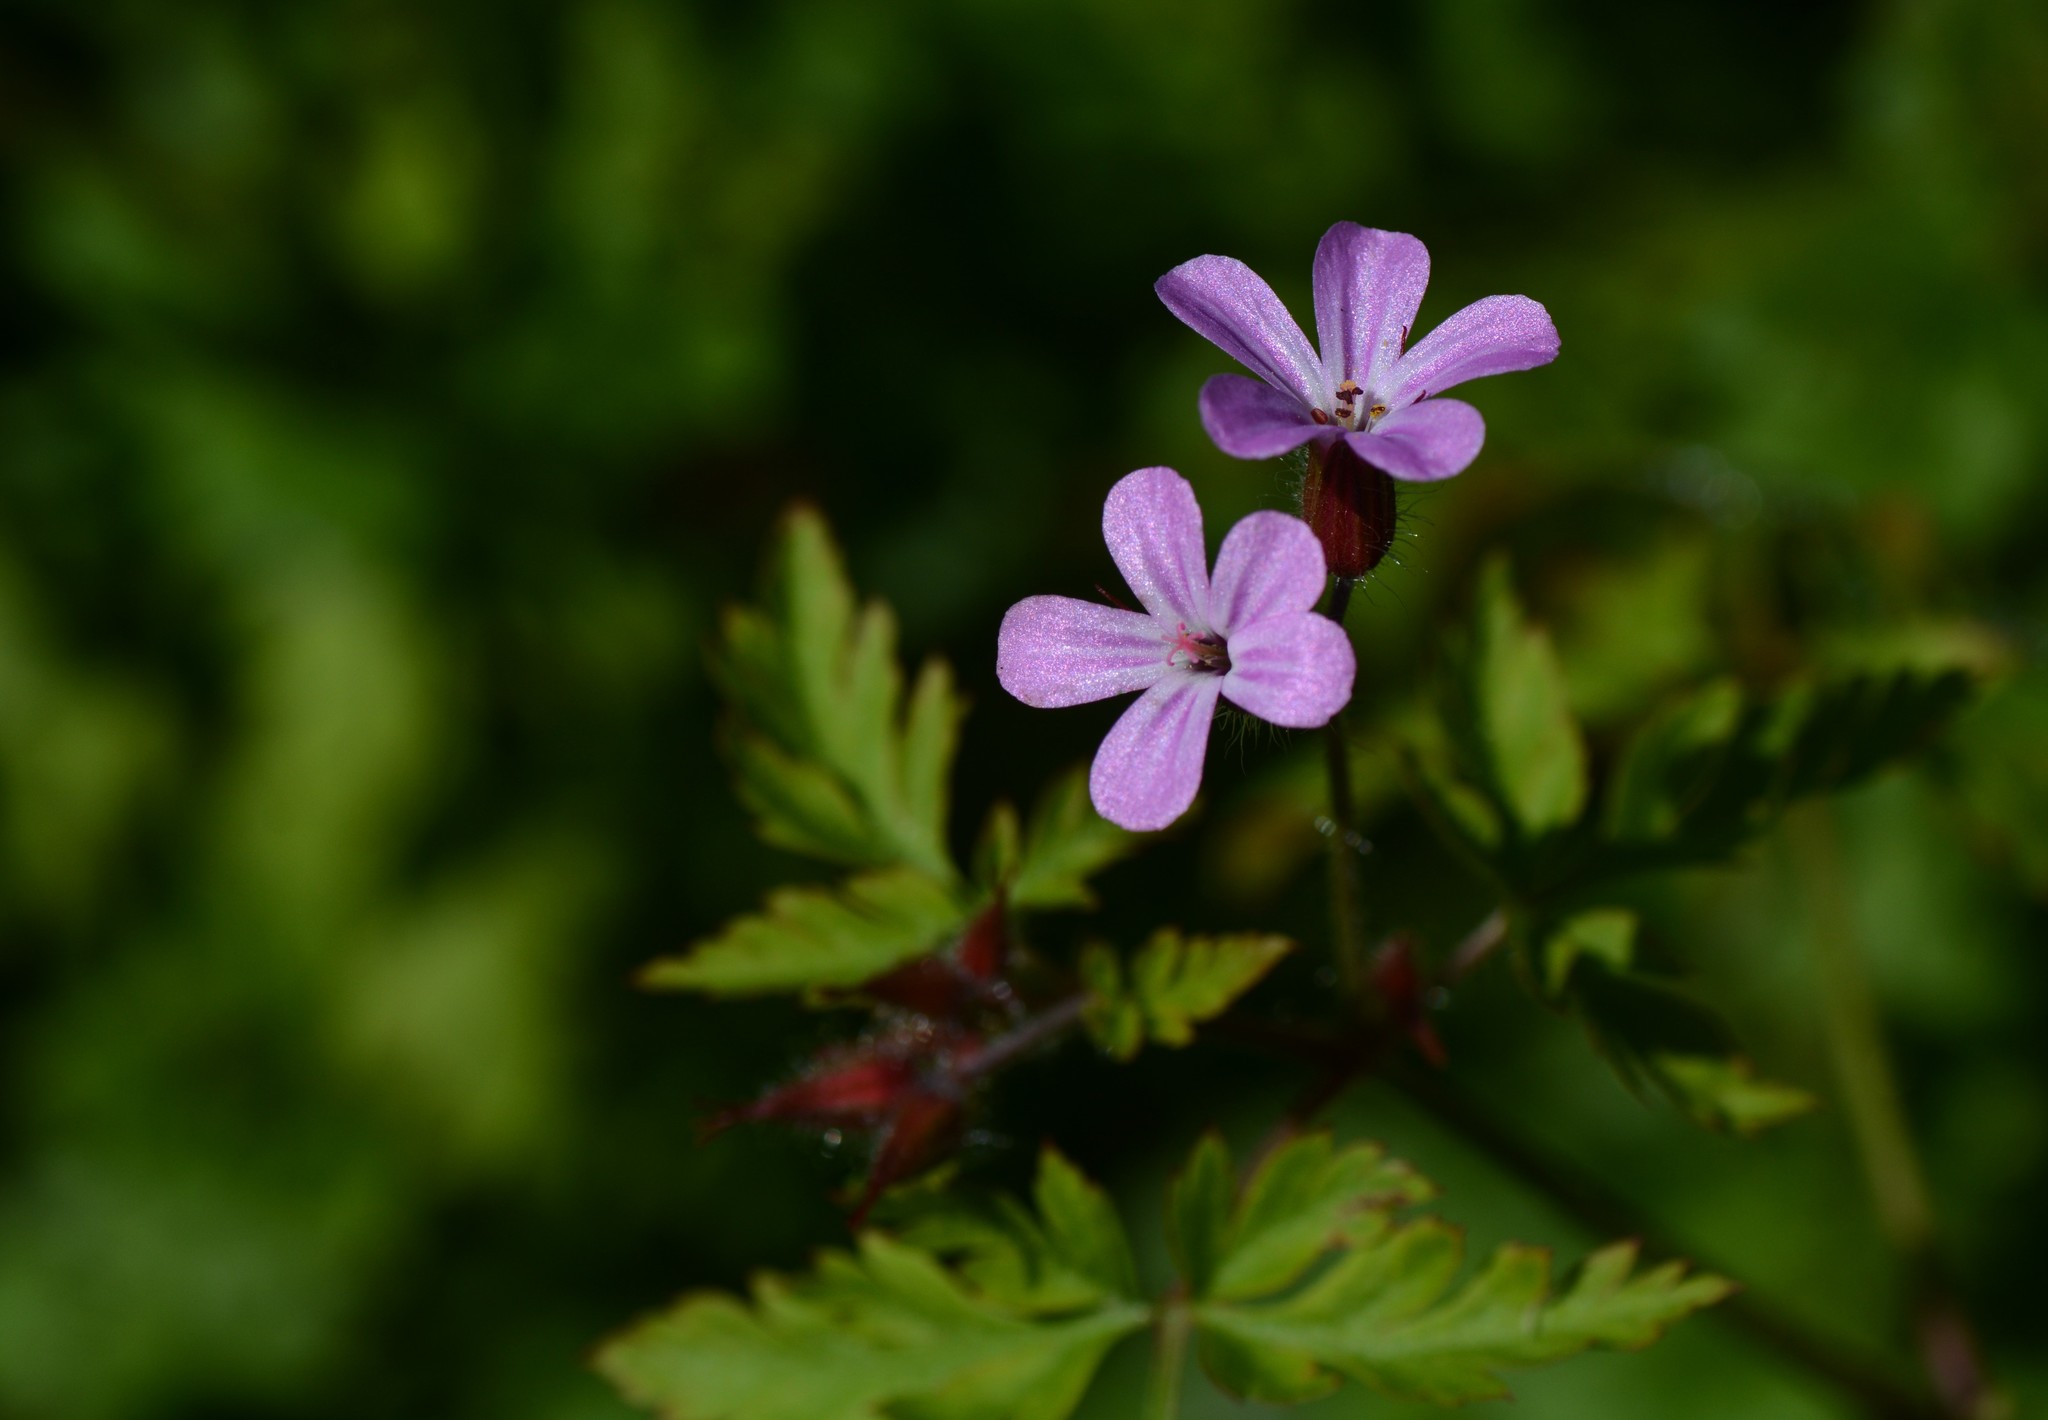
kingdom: Plantae
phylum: Tracheophyta
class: Magnoliopsida
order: Geraniales
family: Geraniaceae
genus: Geranium
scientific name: Geranium robertianum
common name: Herb-robert
